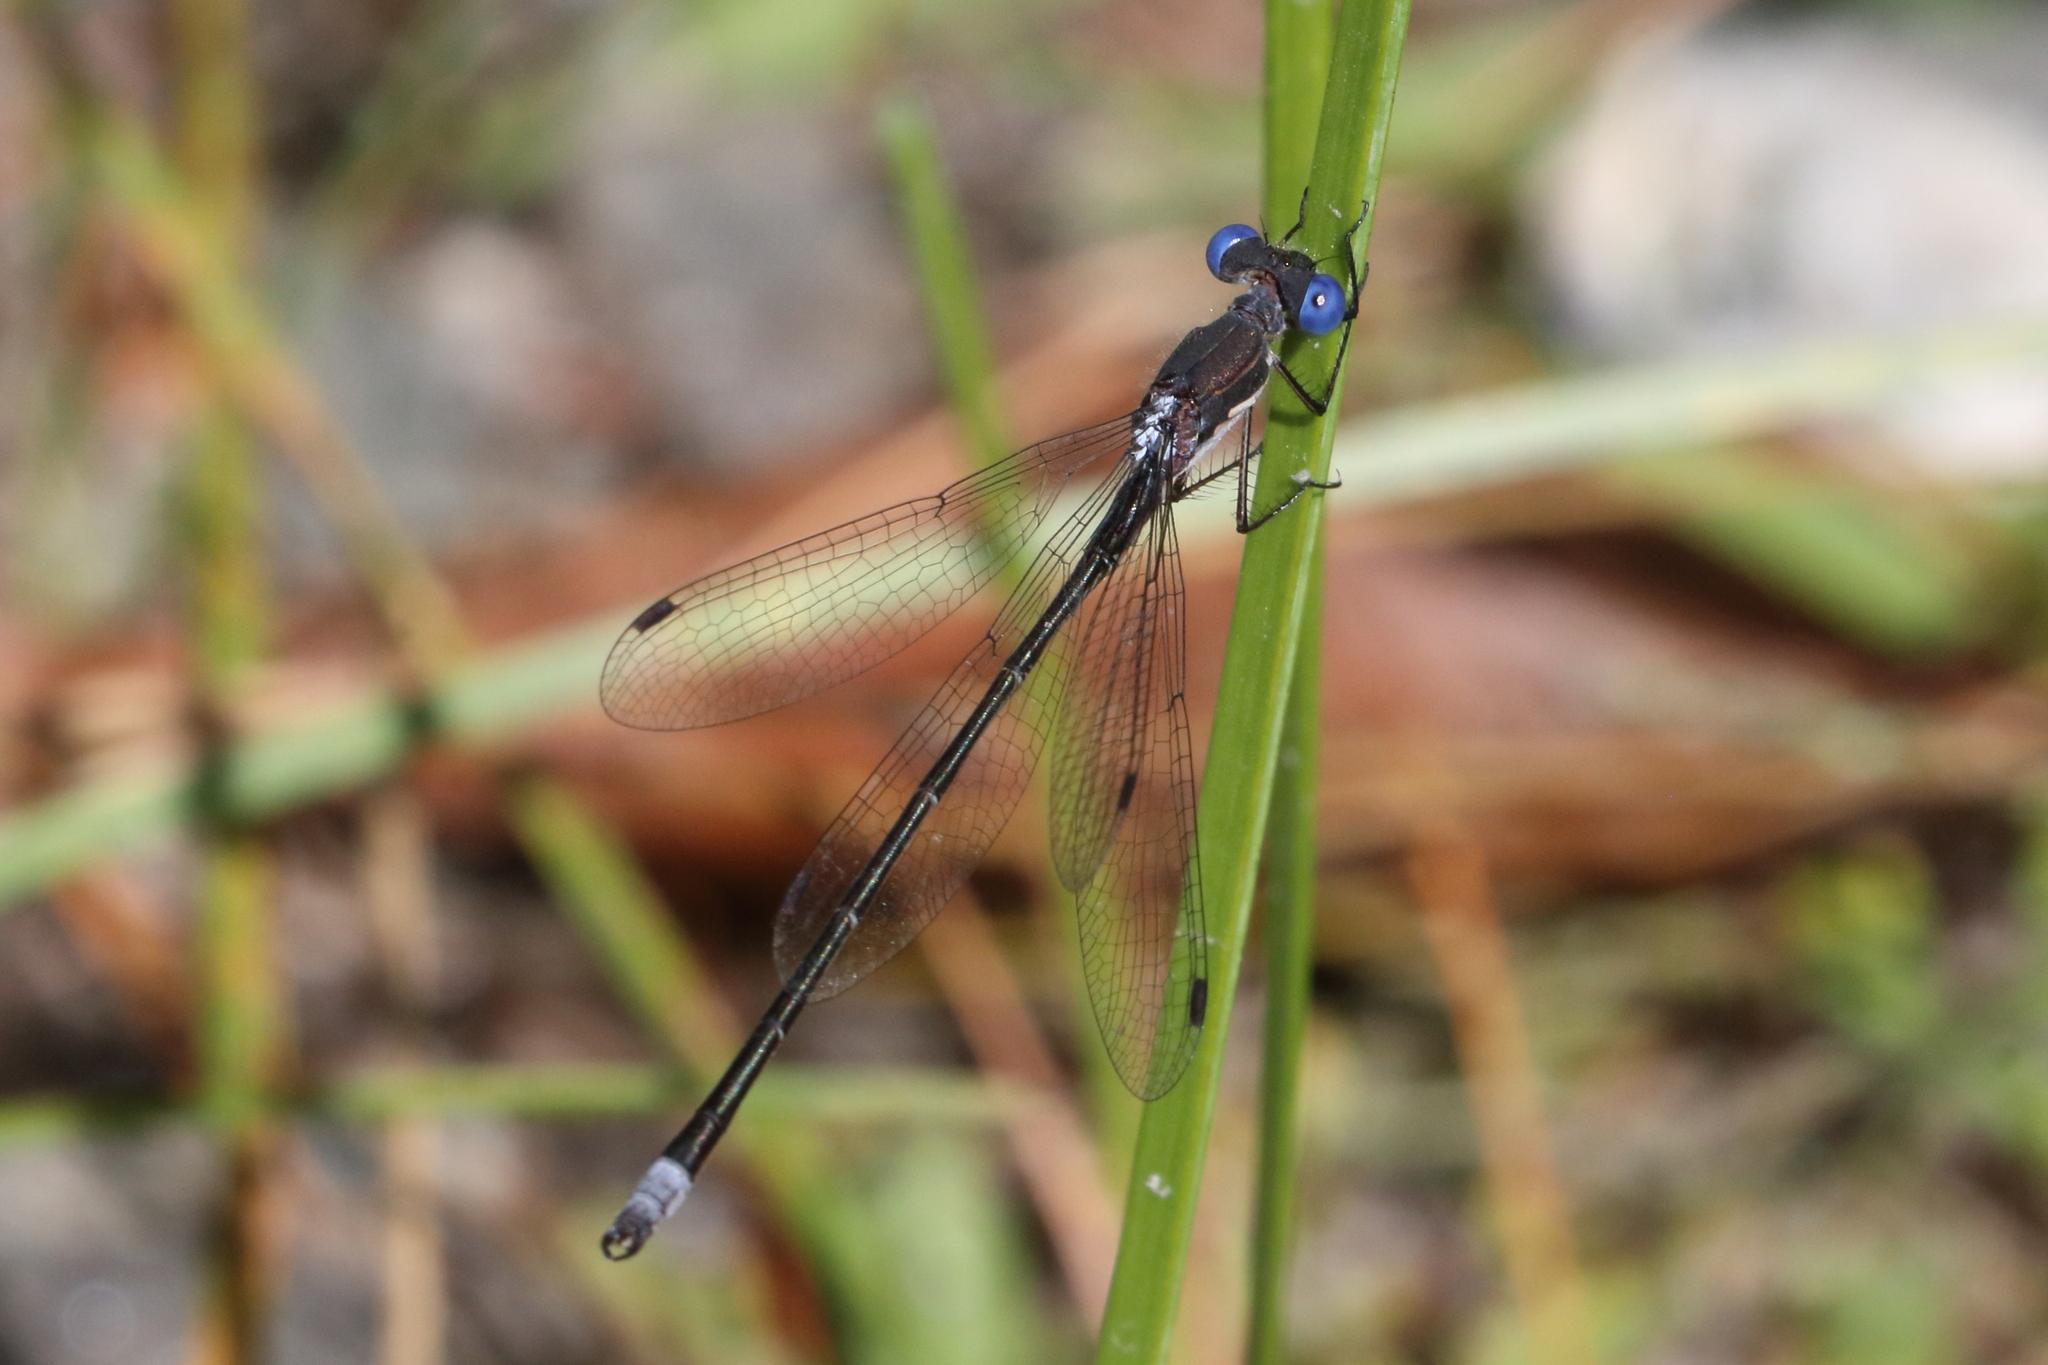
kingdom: Animalia
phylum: Arthropoda
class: Insecta
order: Odonata
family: Lestidae
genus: Lestes
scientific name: Lestes congener
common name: Spotted spreadwing
